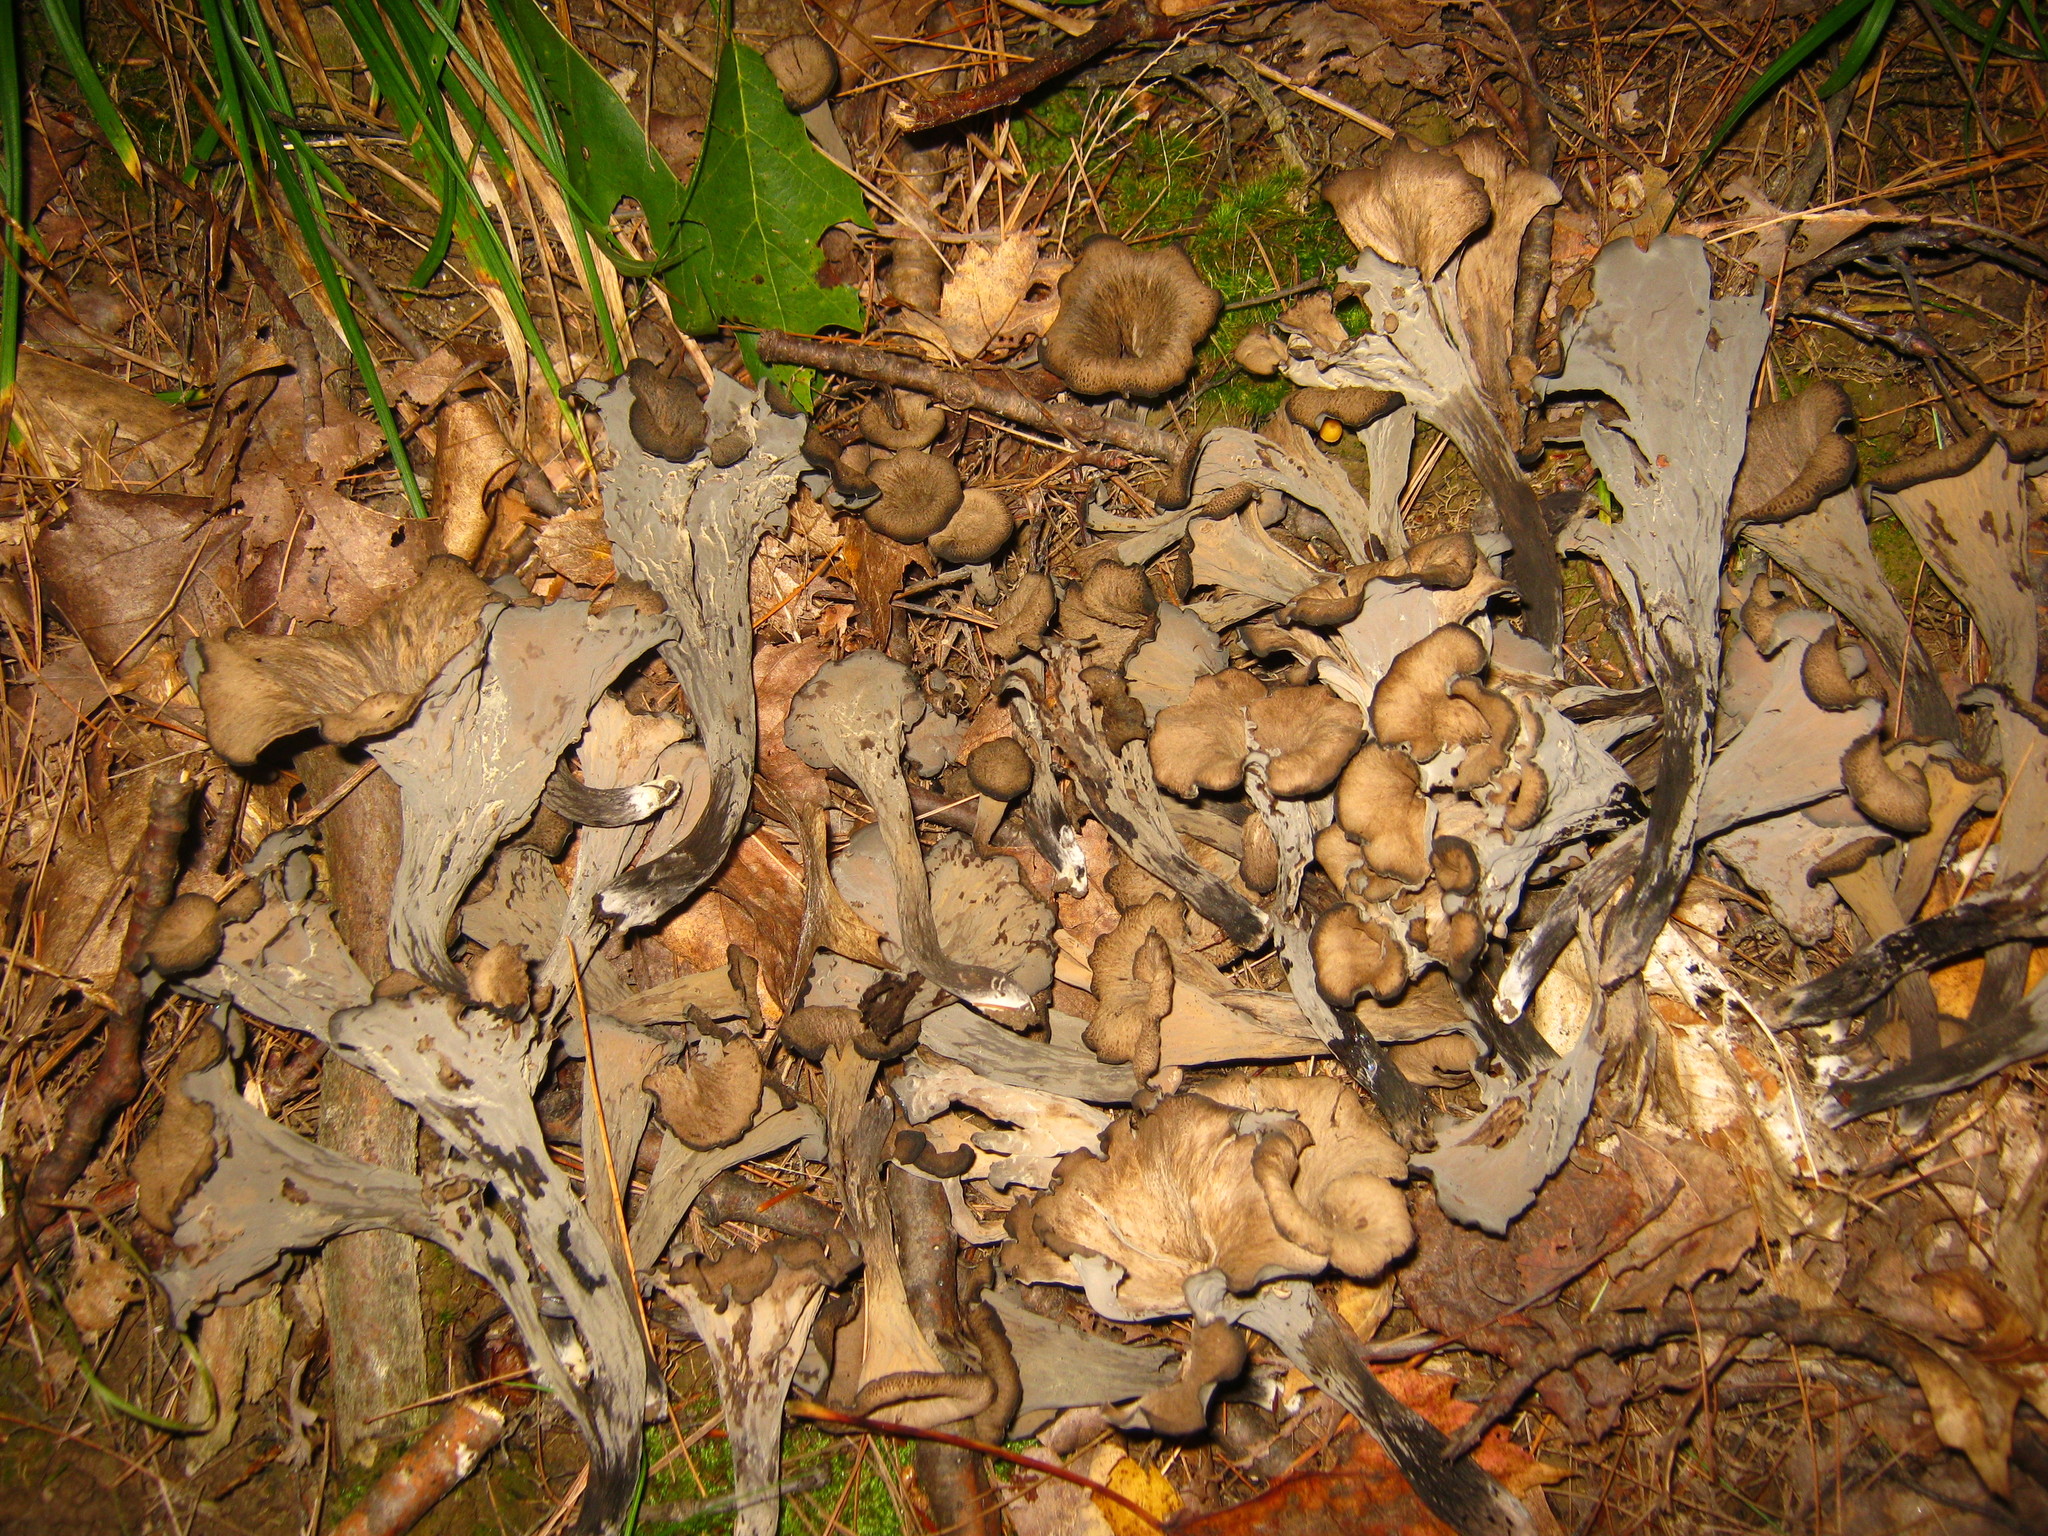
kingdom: Fungi
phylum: Basidiomycota
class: Agaricomycetes
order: Cantharellales
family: Hydnaceae
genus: Craterellus
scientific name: Craterellus cornucopioides
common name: Horn of plenty
